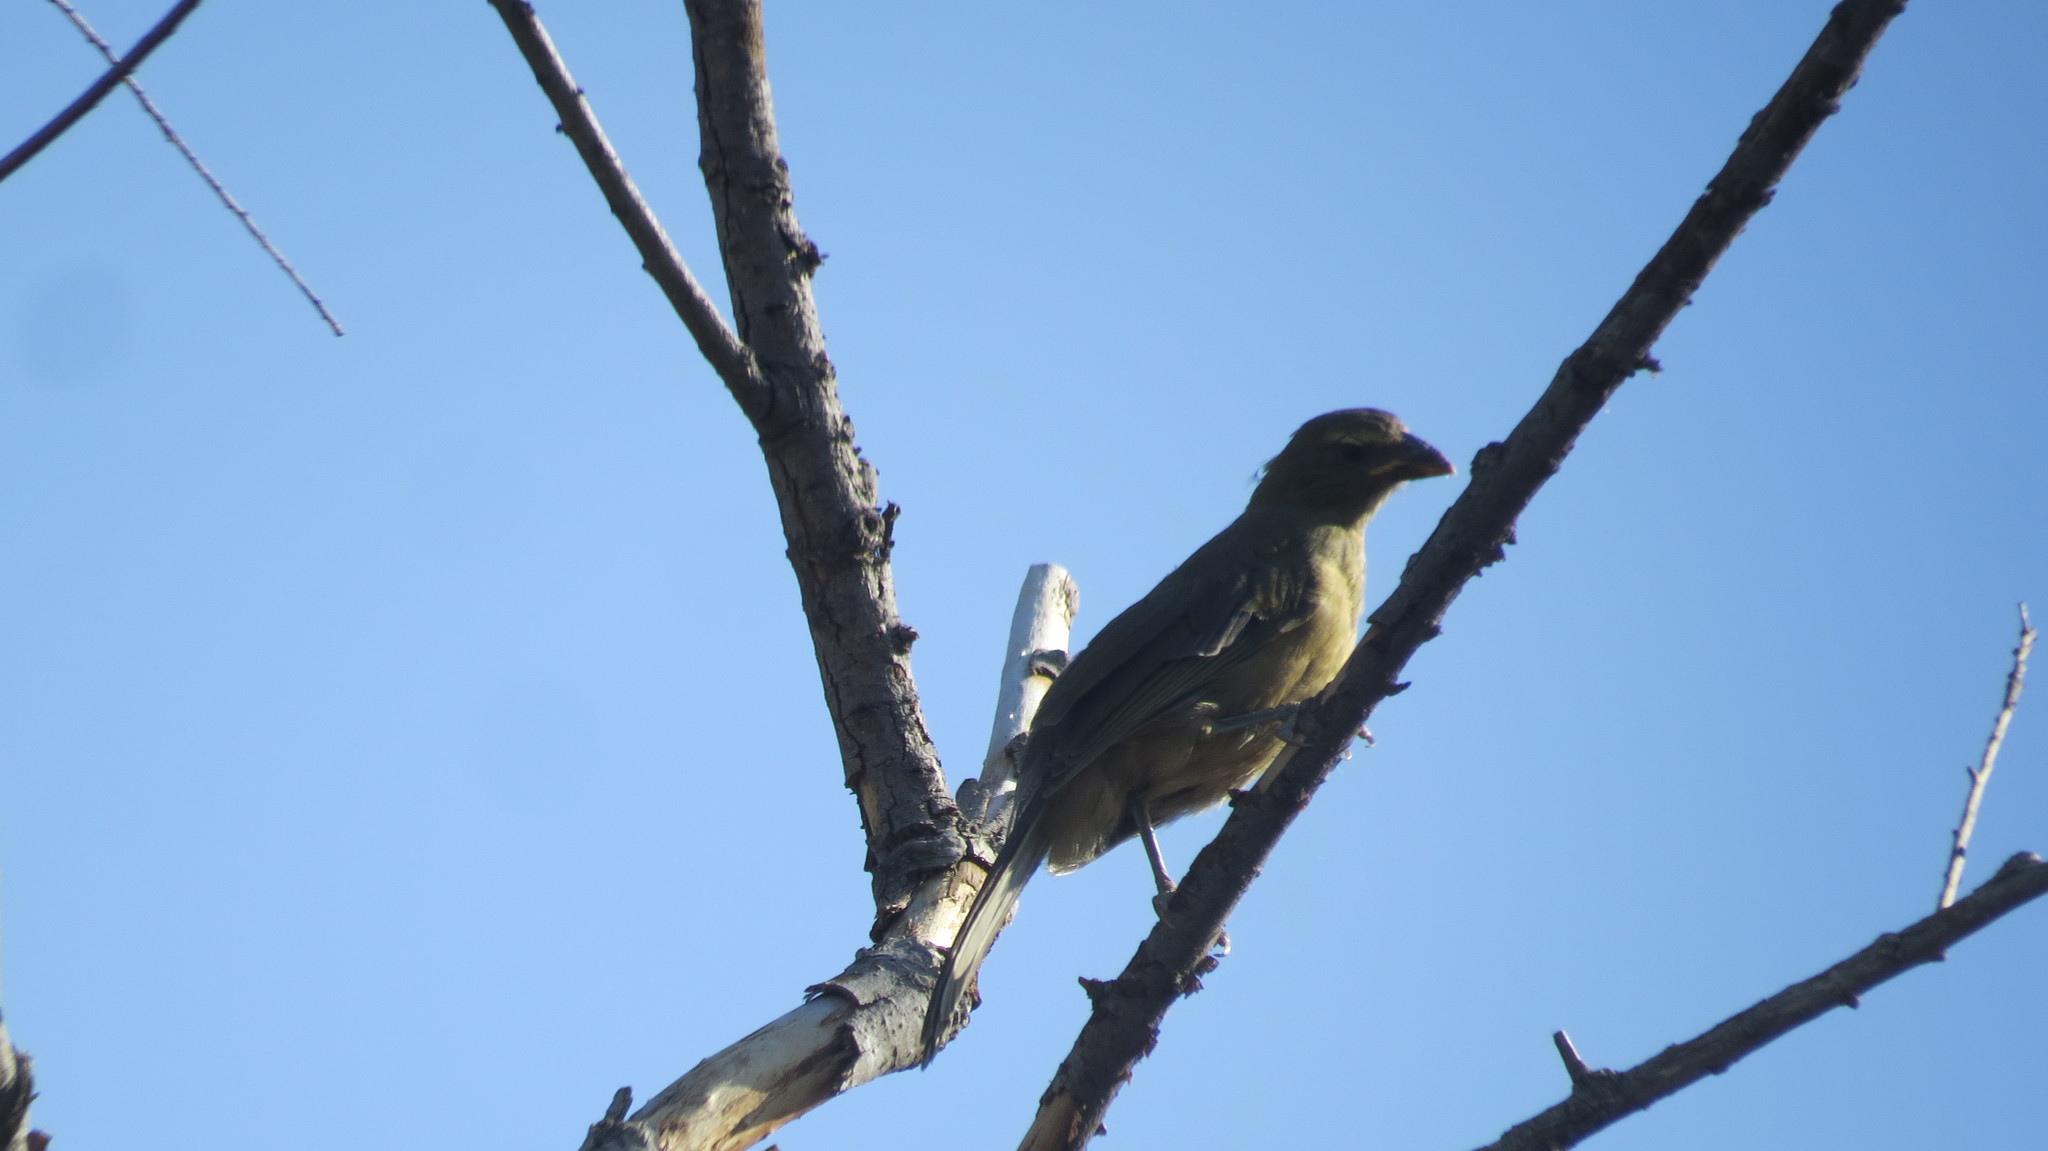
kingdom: Animalia
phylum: Chordata
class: Aves
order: Passeriformes
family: Thraupidae
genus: Saltator
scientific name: Saltator coerulescens
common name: Grayish saltator
